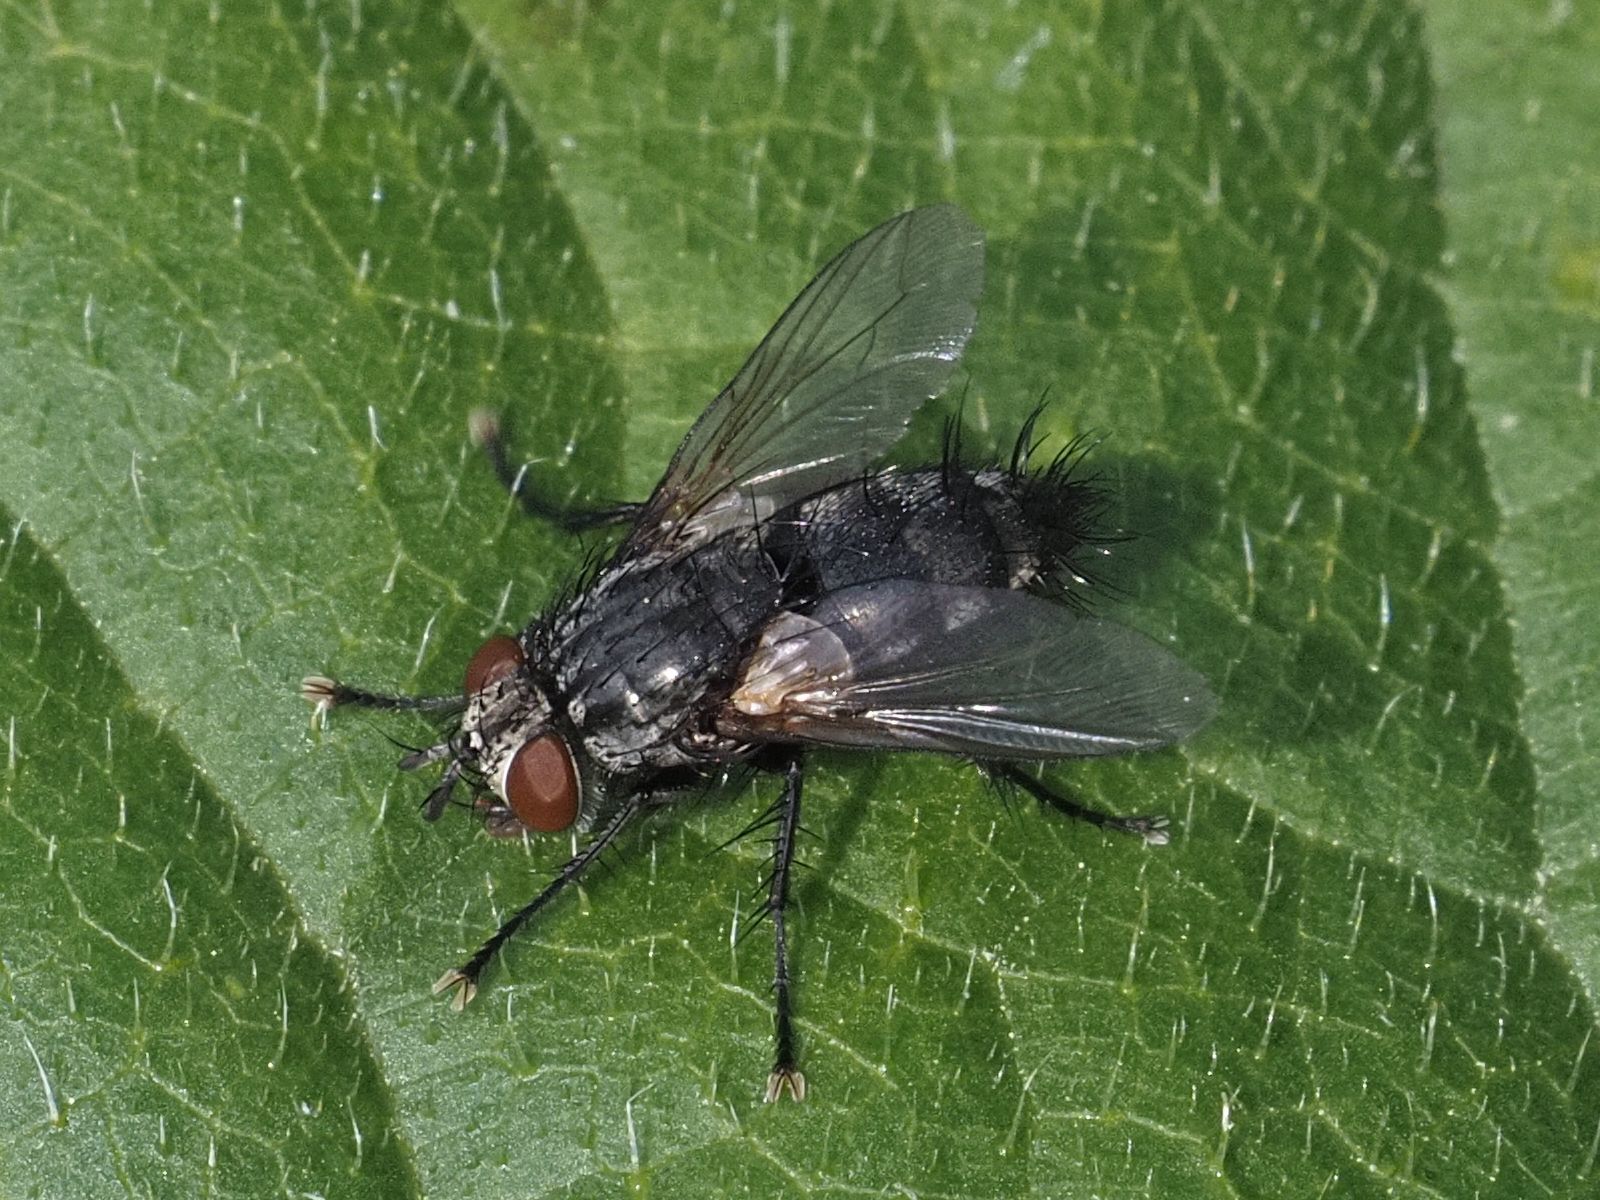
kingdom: Animalia
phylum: Arthropoda
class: Insecta
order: Diptera
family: Tachinidae
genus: Voria
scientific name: Voria ruralis
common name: Parasitic fly
